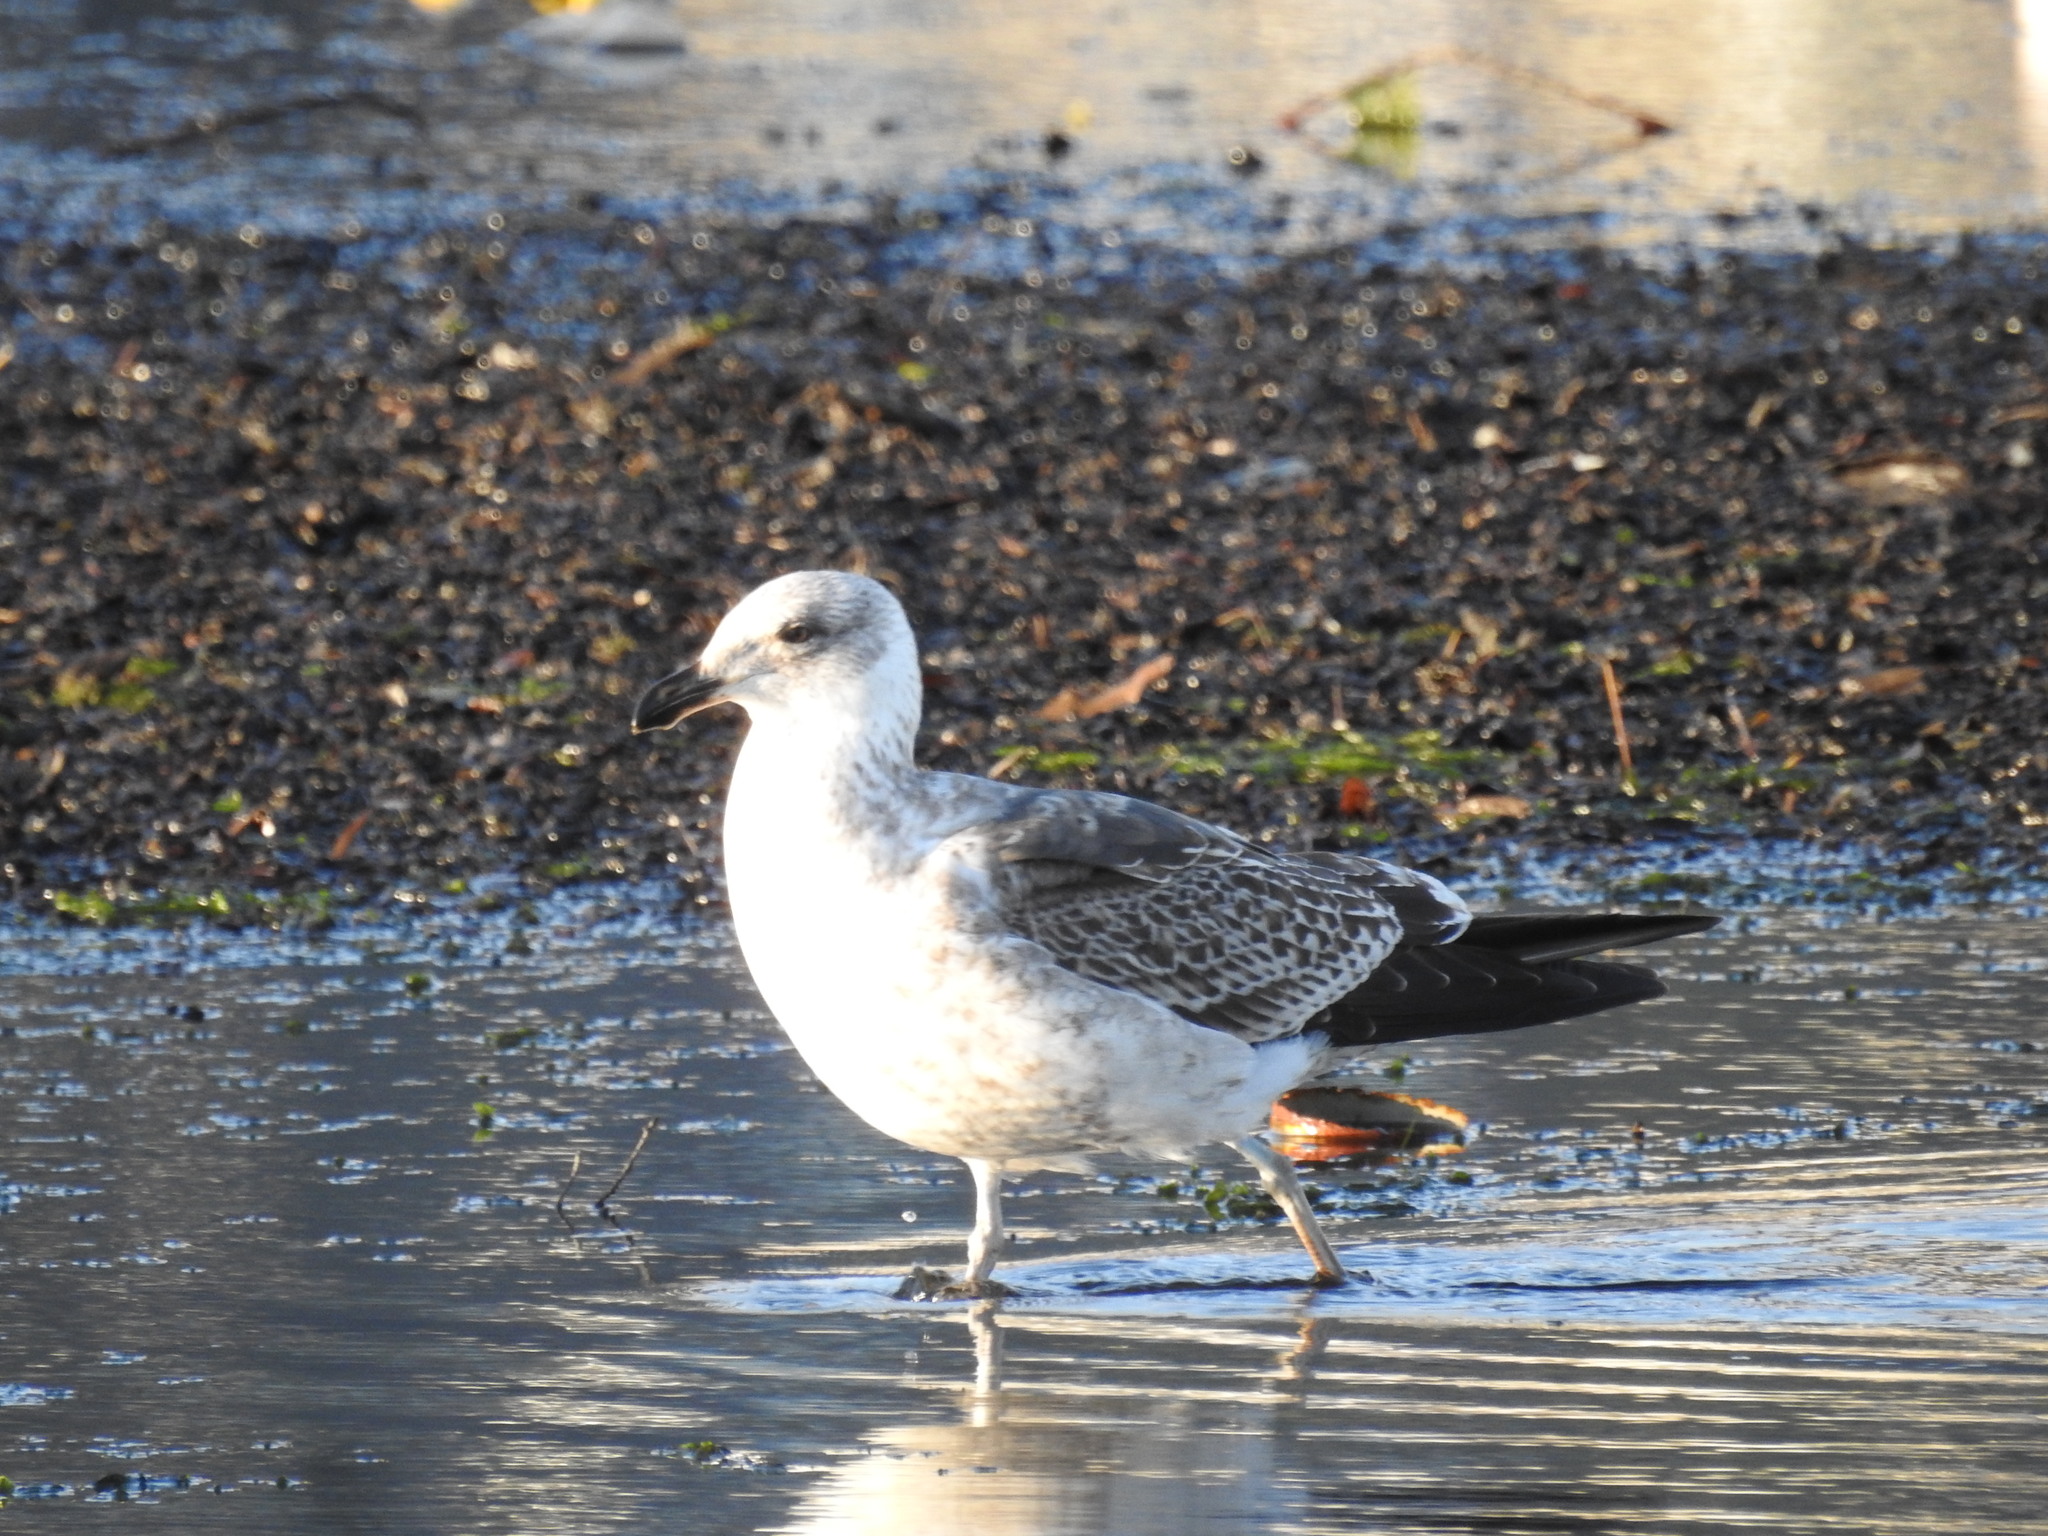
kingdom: Animalia
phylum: Chordata
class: Aves
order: Charadriiformes
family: Laridae
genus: Larus
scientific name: Larus dominicanus
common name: Kelp gull
